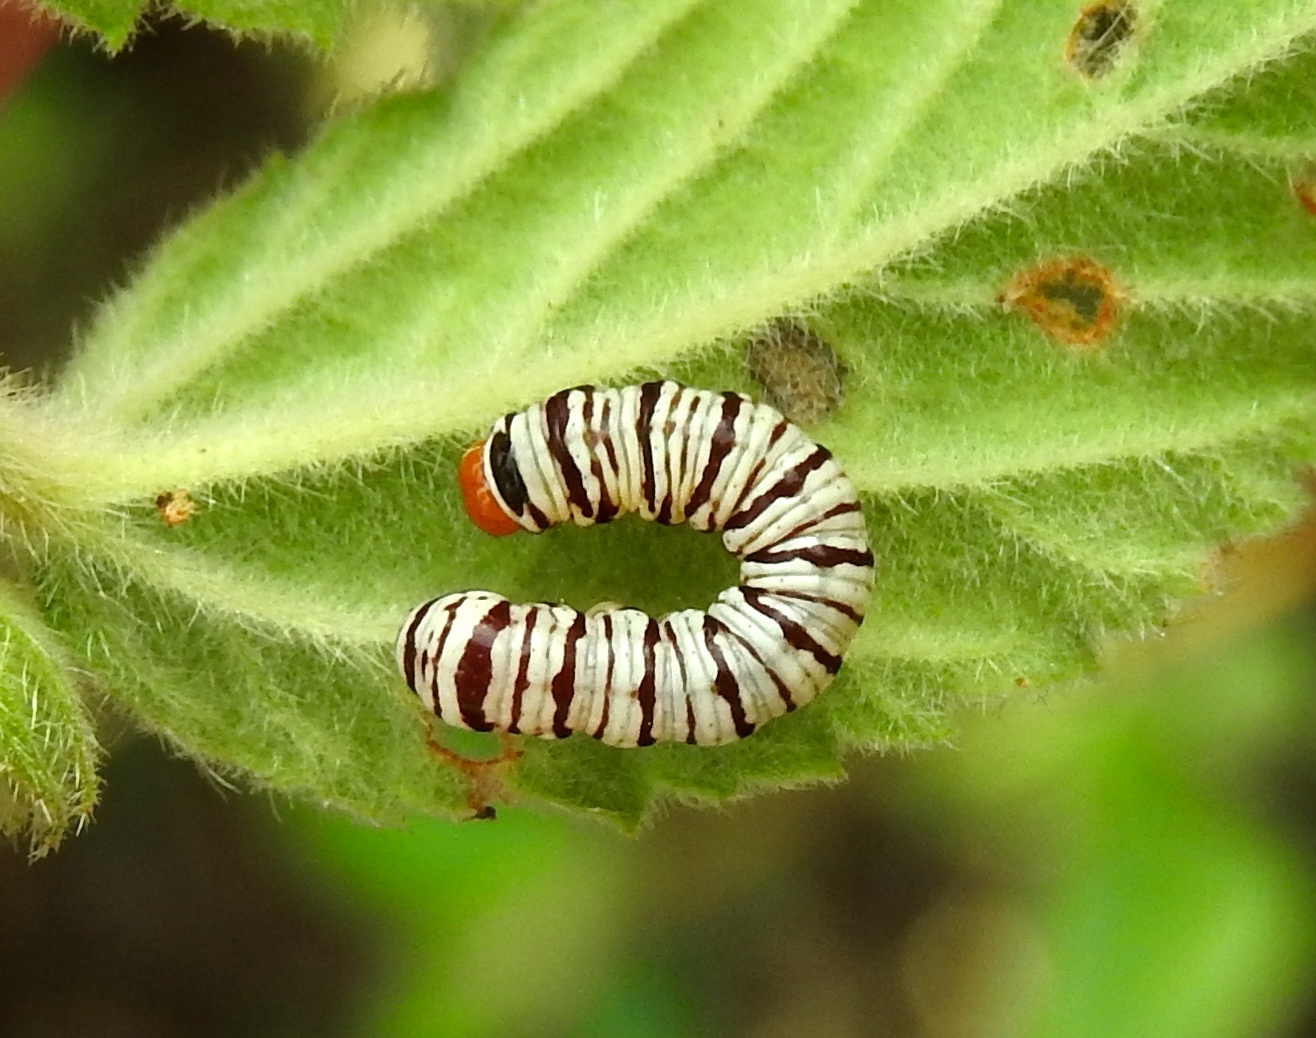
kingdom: Animalia
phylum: Arthropoda
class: Insecta
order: Lepidoptera
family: Erebidae
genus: Diphthera
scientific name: Diphthera festiva
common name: Hieroglyphic moth
